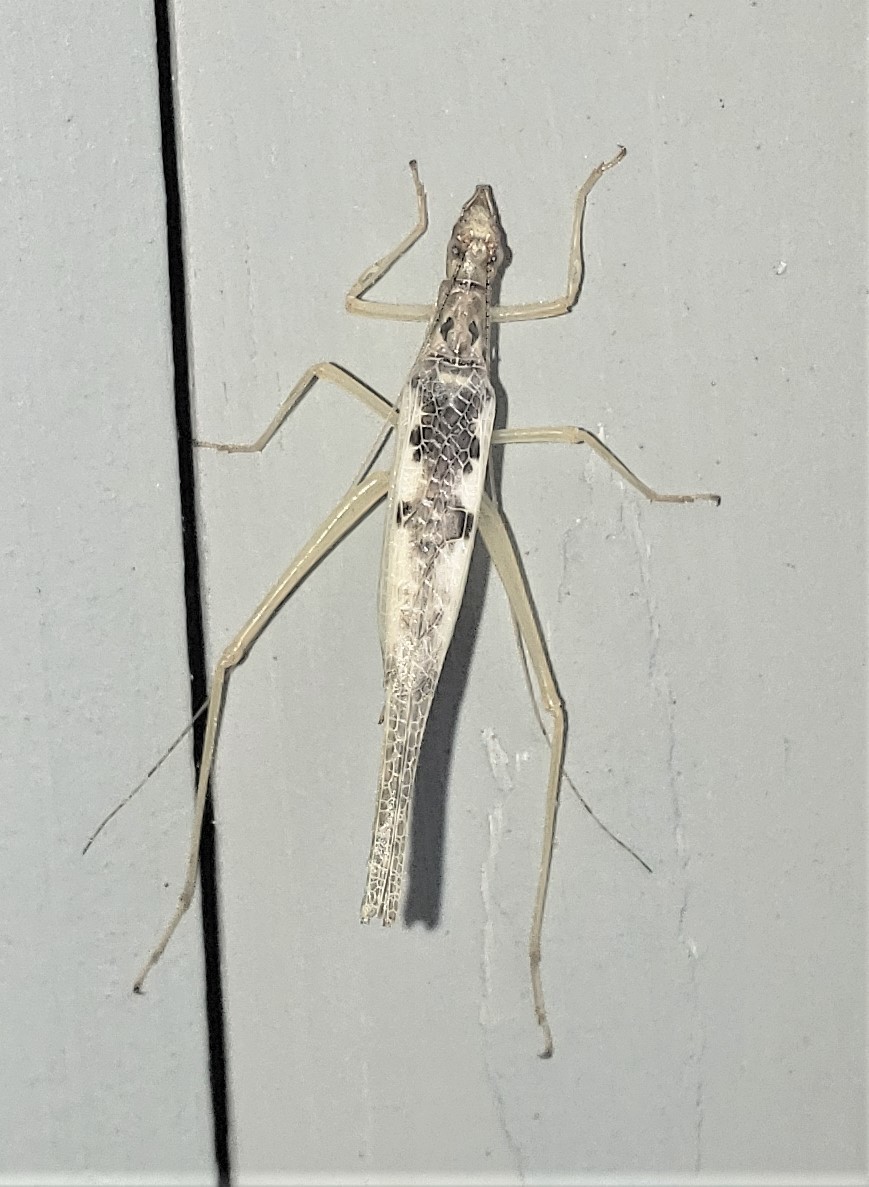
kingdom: Animalia
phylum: Arthropoda
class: Insecta
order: Orthoptera
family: Gryllidae
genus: Neoxabea
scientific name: Neoxabea bipunctata
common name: Two-spotted tree cricket
